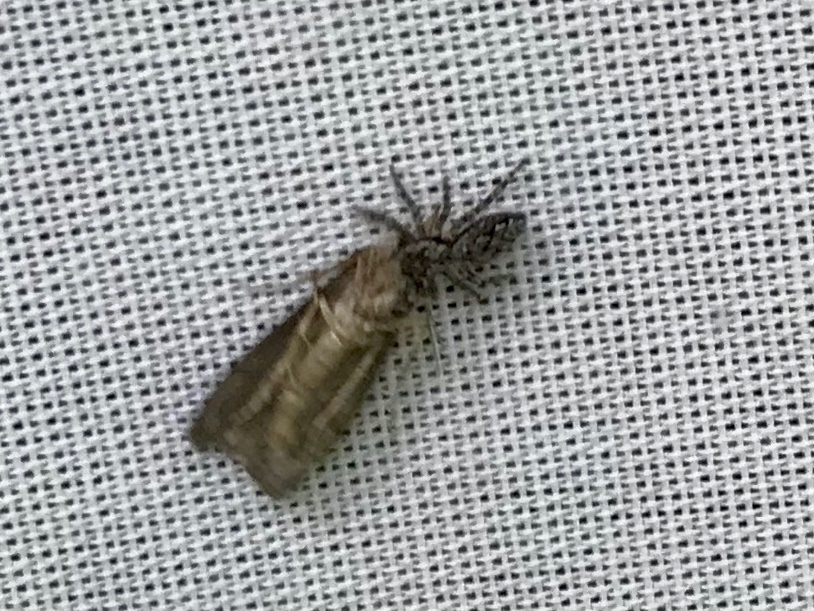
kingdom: Animalia
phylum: Arthropoda
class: Arachnida
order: Araneae
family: Salticidae
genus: Platycryptus
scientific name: Platycryptus undatus
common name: Tan jumping spider
